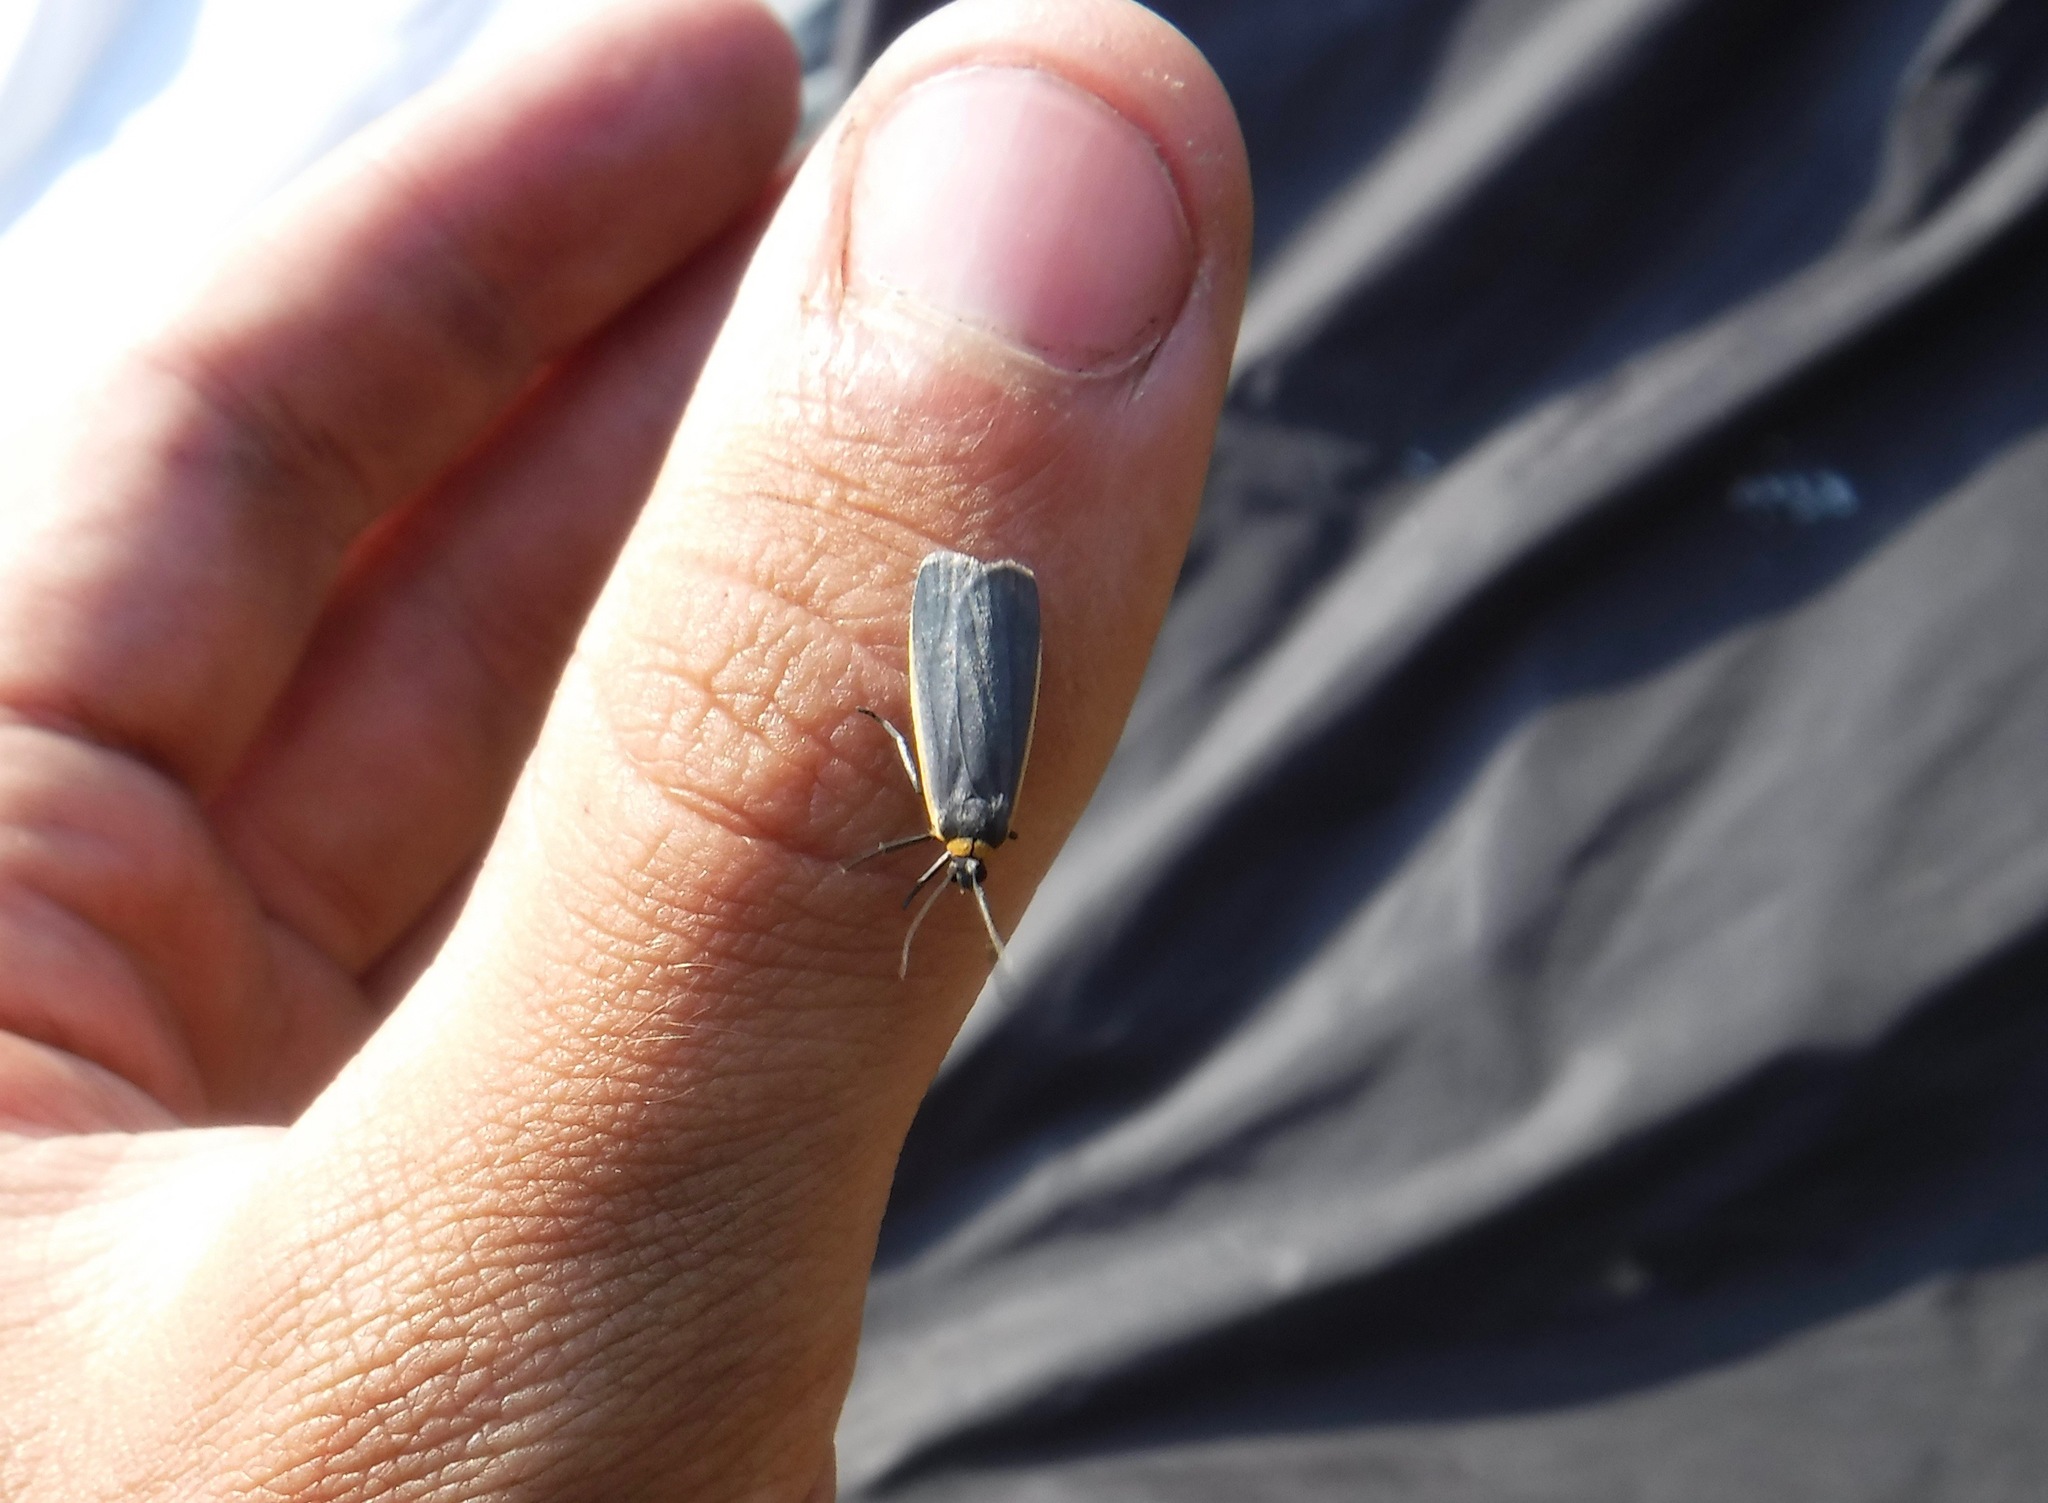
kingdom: Animalia
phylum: Arthropoda
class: Insecta
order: Lepidoptera
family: Erebidae
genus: Manulea
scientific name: Manulea bicolor
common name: Bicolored moth
